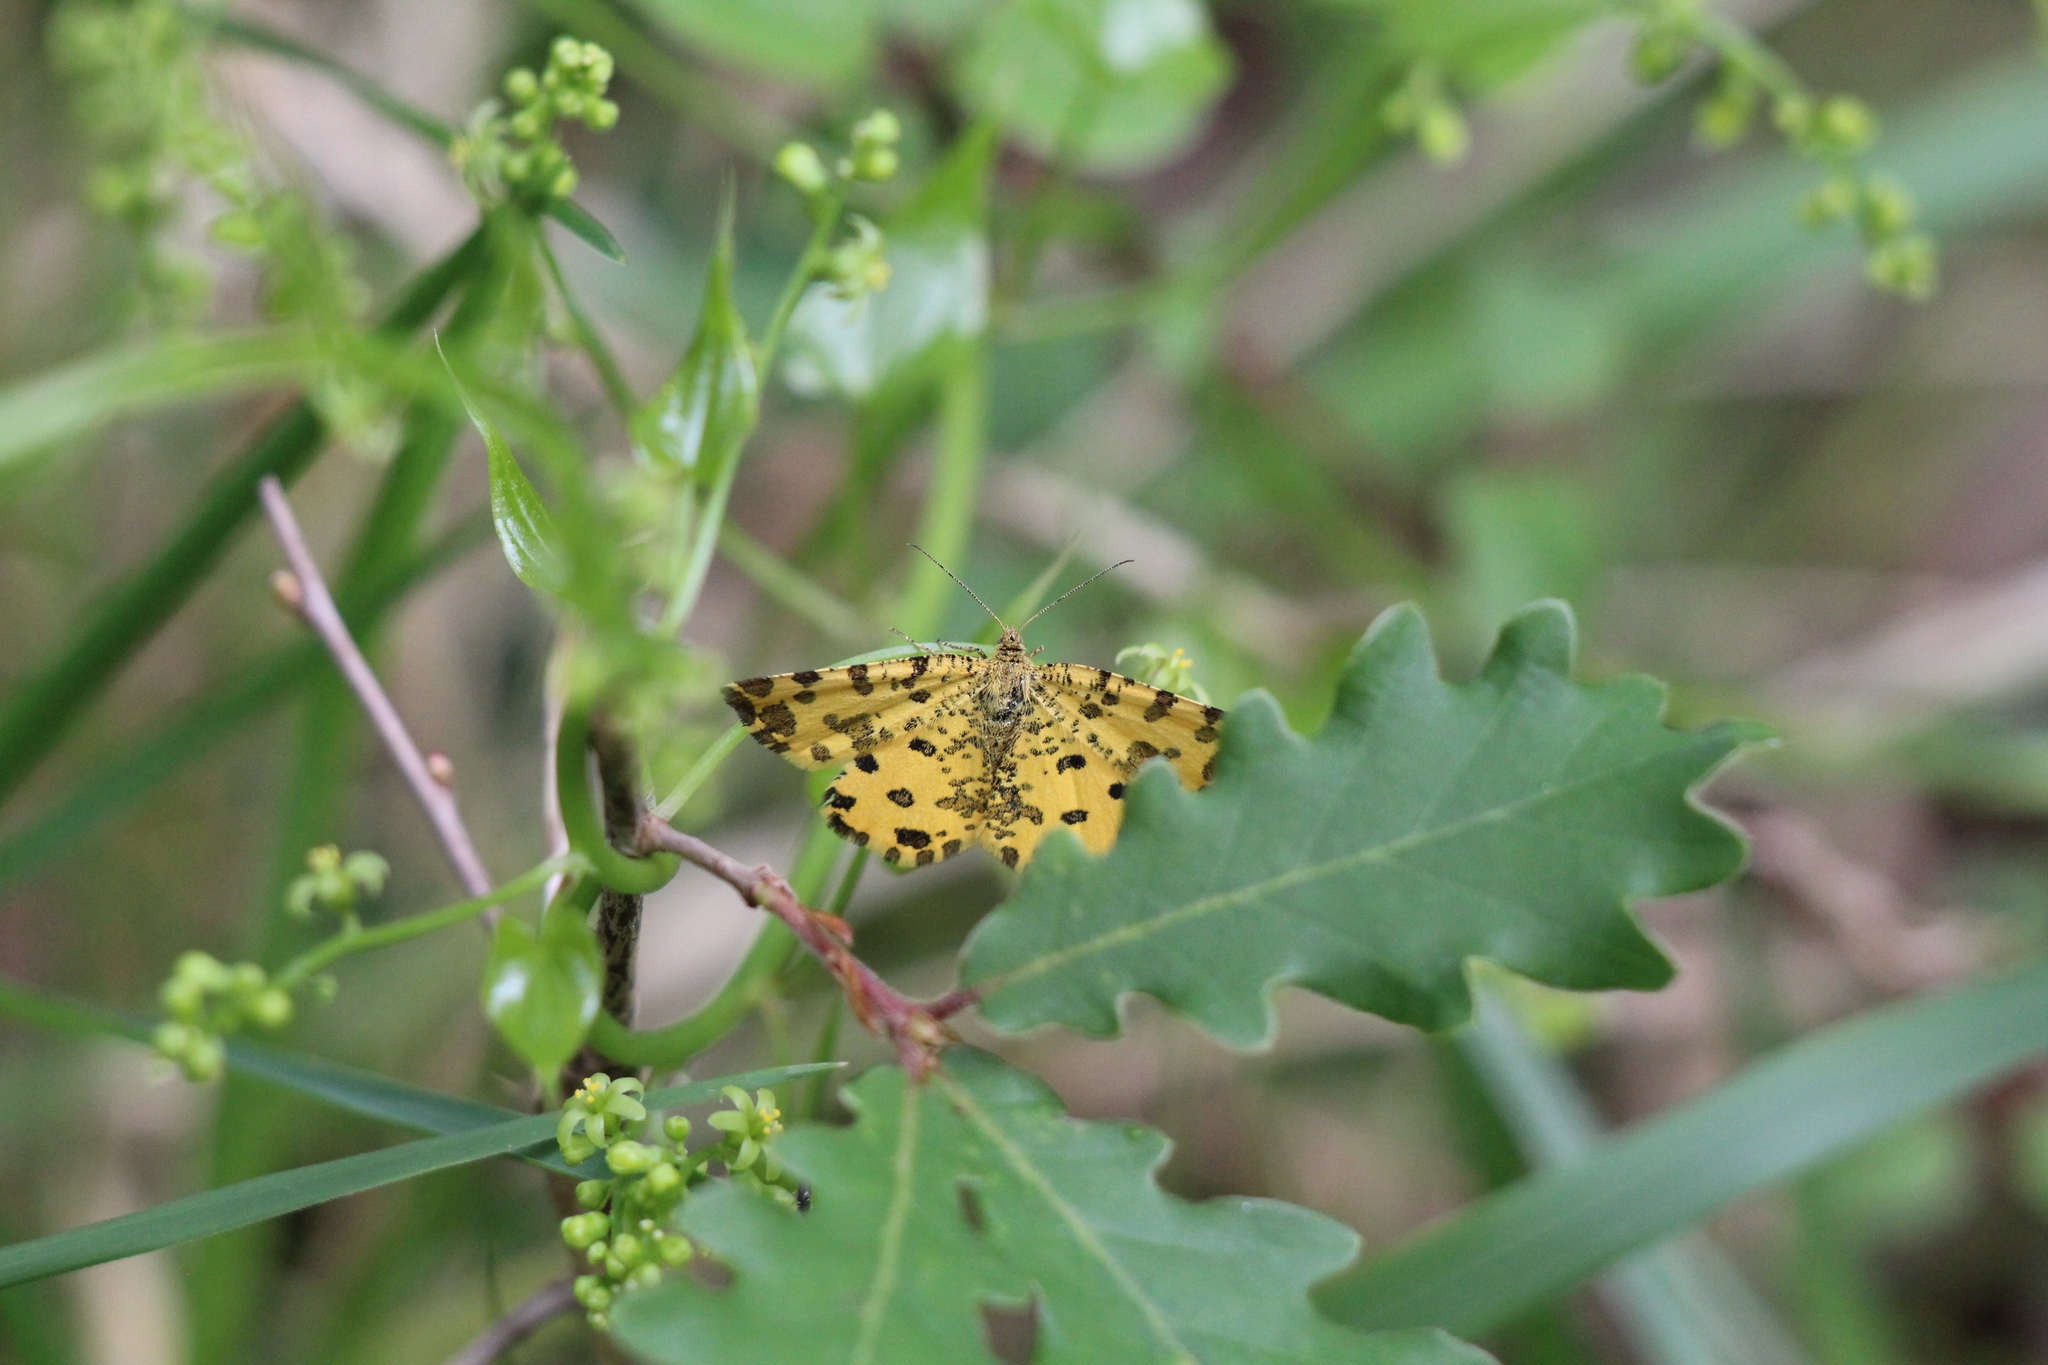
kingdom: Animalia
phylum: Arthropoda
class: Insecta
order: Lepidoptera
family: Geometridae
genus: Pseudopanthera
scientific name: Pseudopanthera macularia
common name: Speckled yellow
